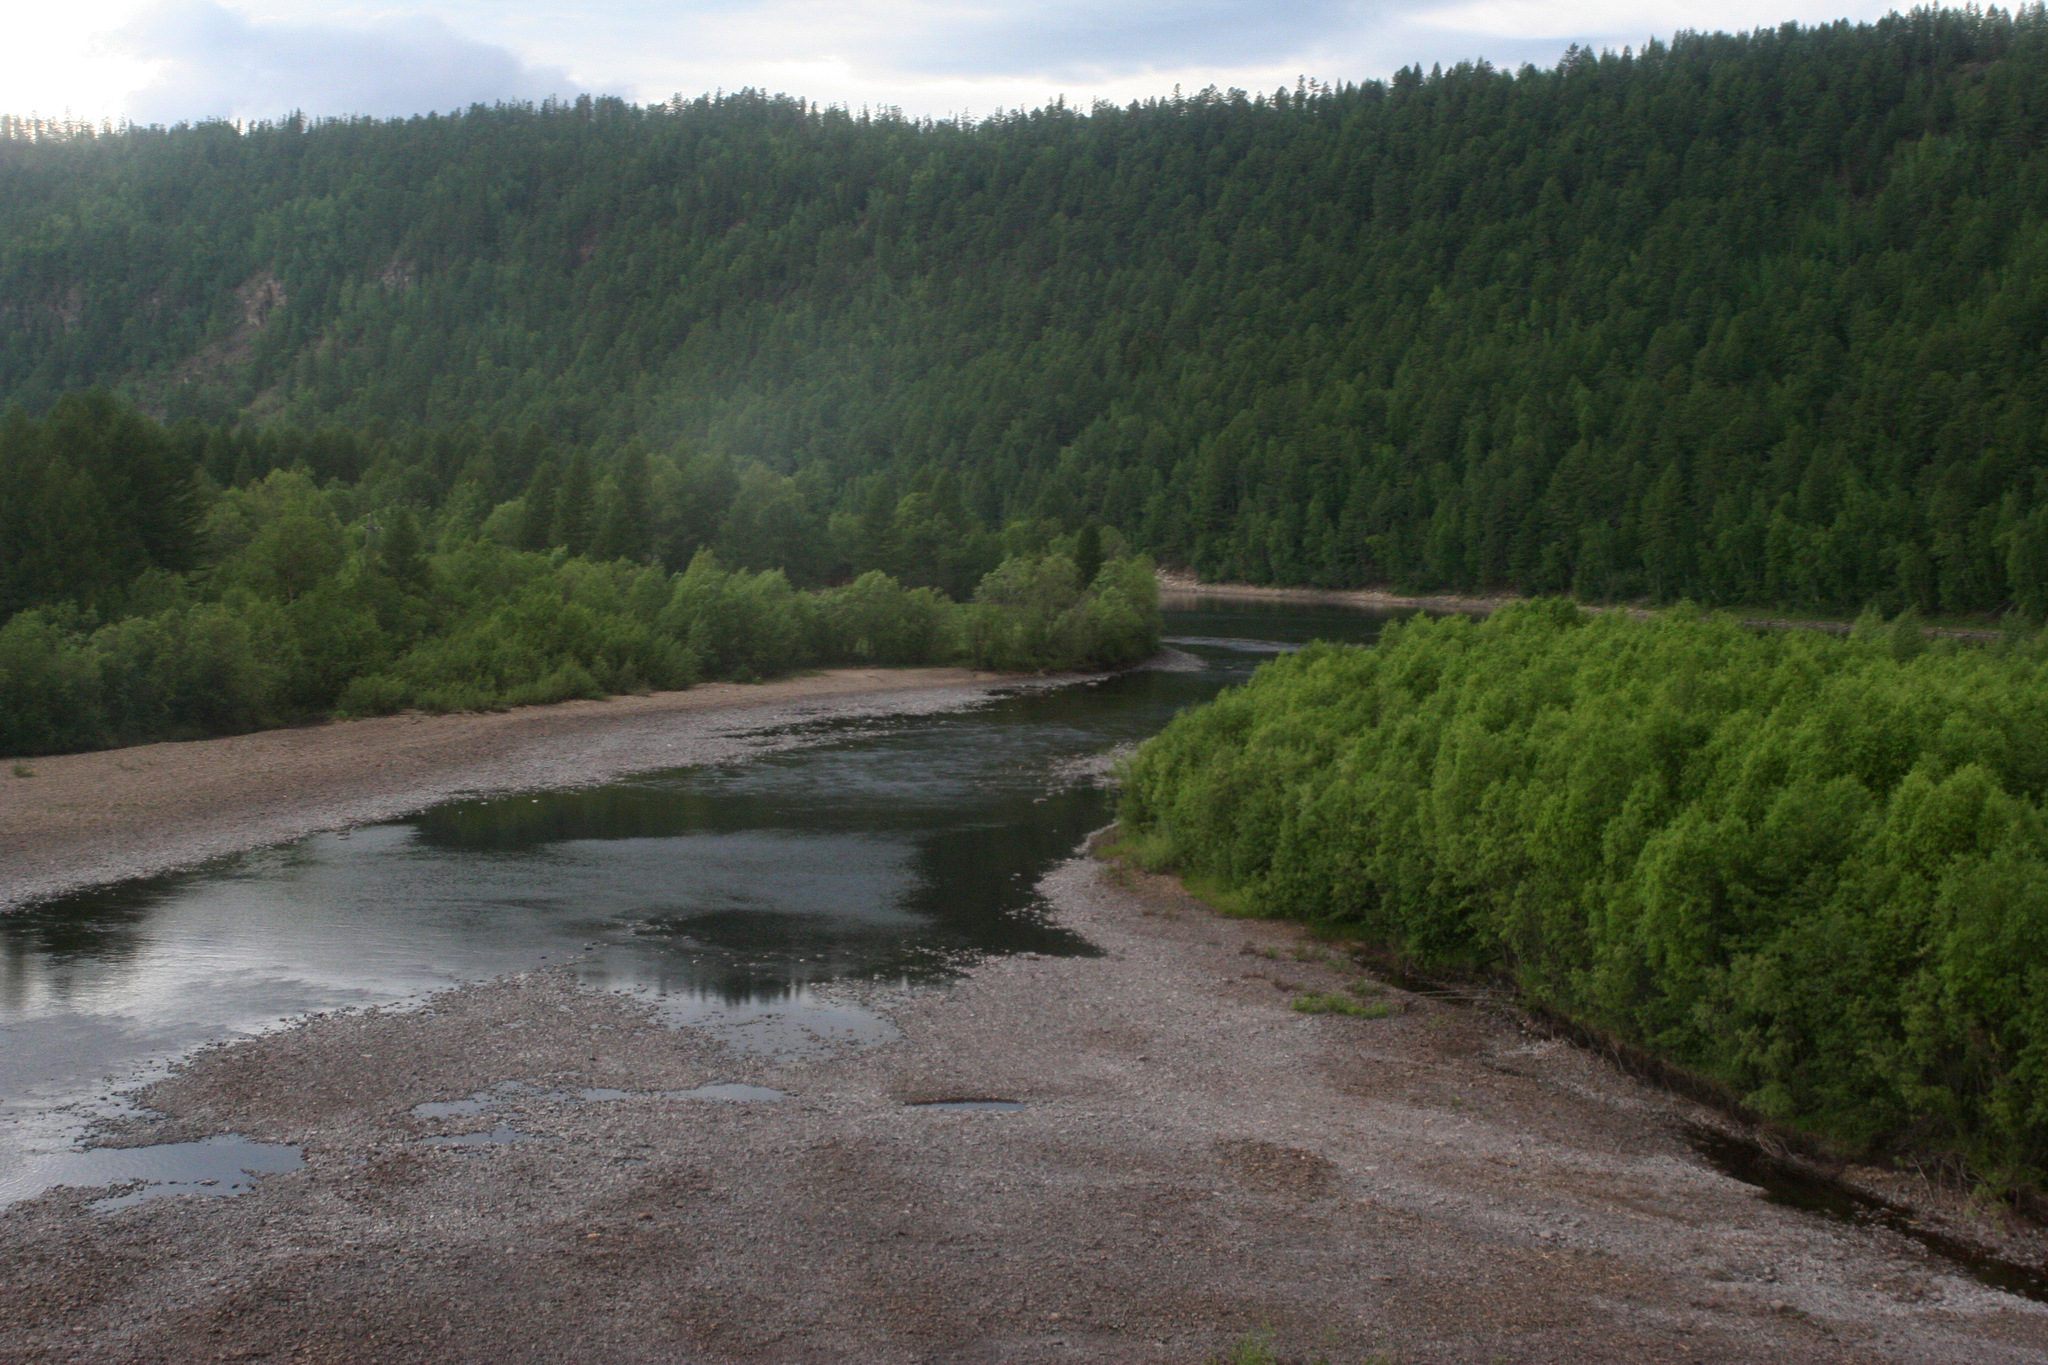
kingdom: Plantae
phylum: Tracheophyta
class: Pinopsida
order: Pinales
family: Pinaceae
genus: Larix
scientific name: Larix gmelinii
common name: Dahurian larch
